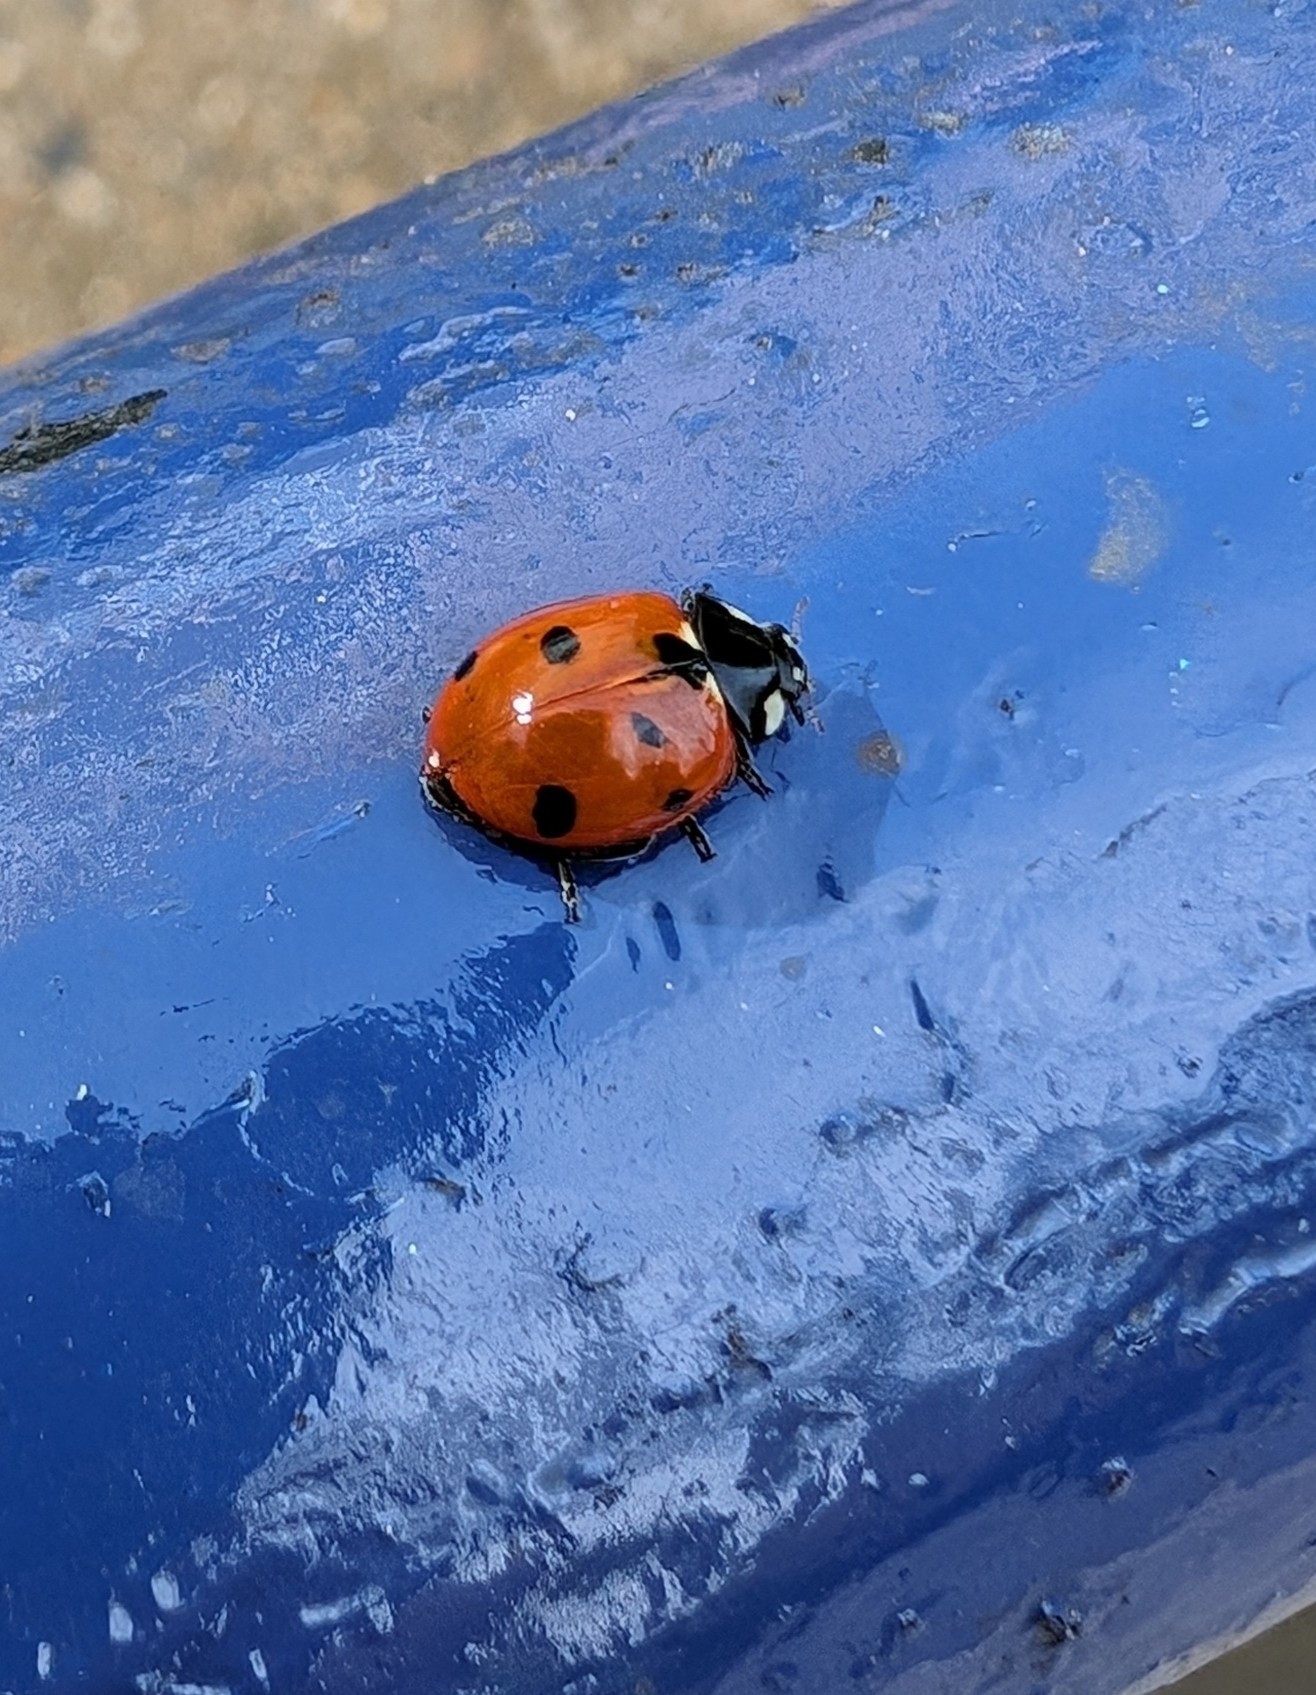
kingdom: Animalia
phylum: Arthropoda
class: Insecta
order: Coleoptera
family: Coccinellidae
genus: Coccinella
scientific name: Coccinella septempunctata
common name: Sevenspotted lady beetle
